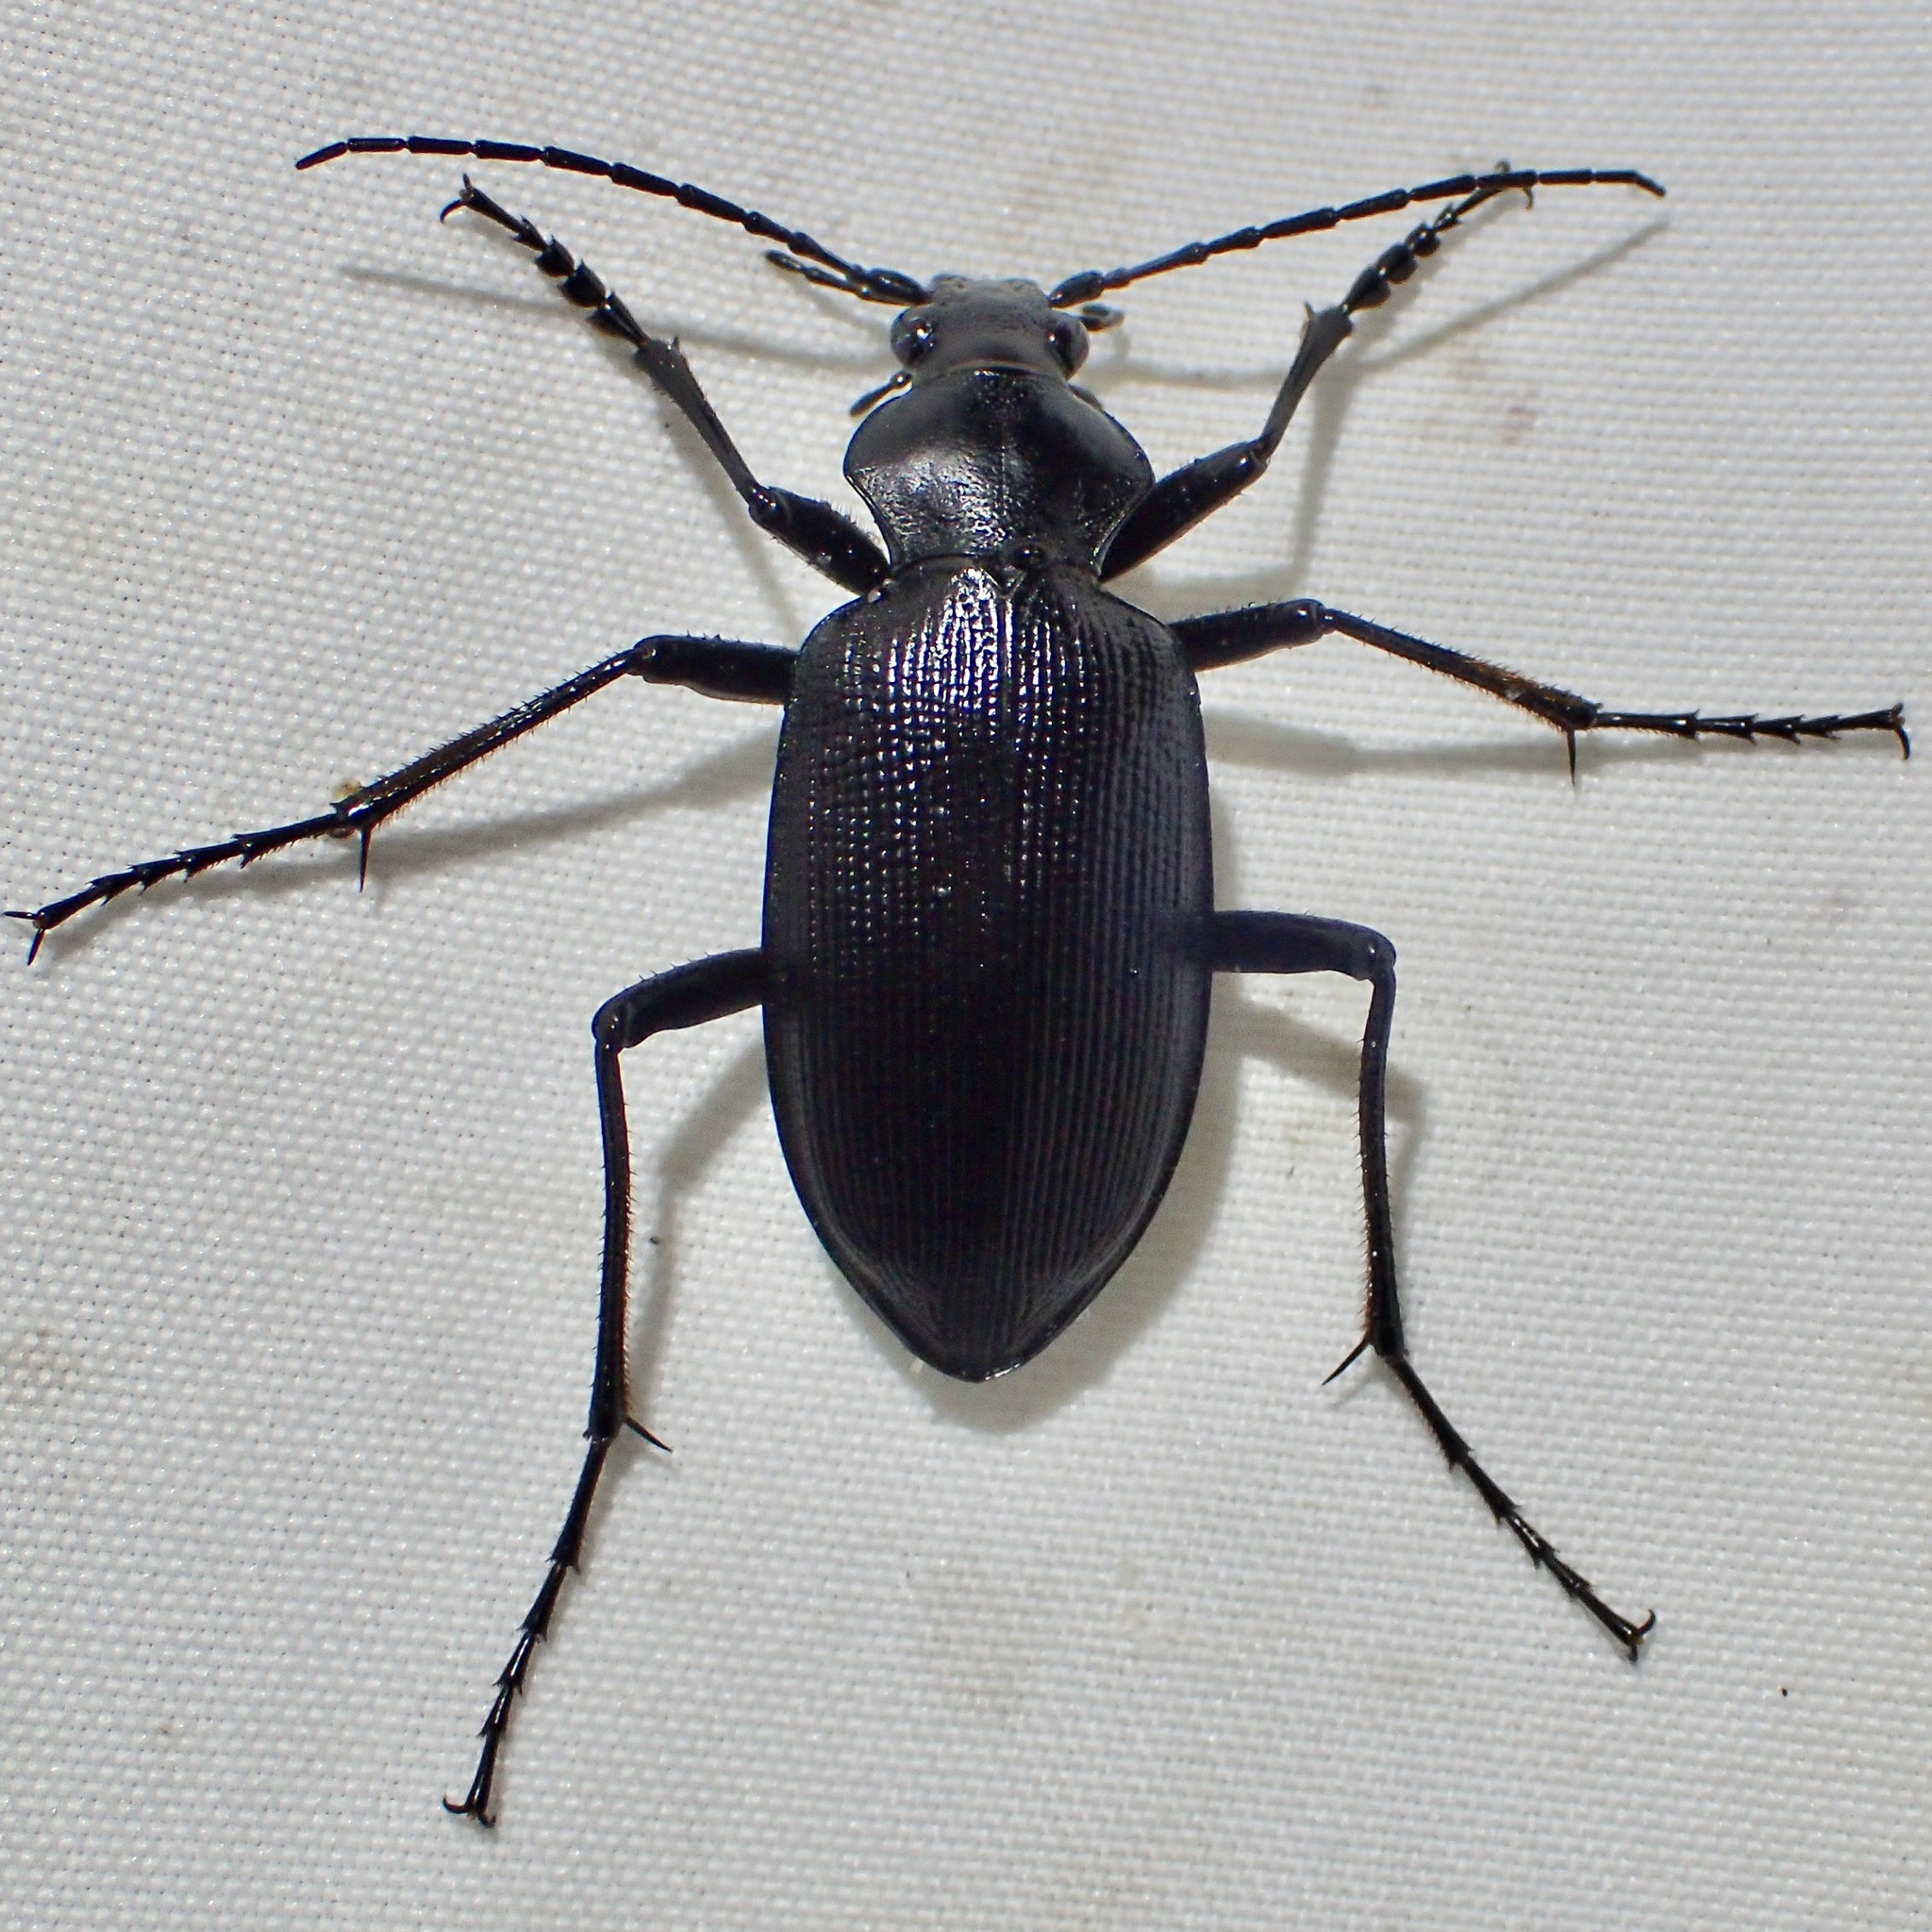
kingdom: Animalia
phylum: Arthropoda
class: Insecta
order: Coleoptera
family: Carabidae
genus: Calosoma
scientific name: Calosoma angulatum
